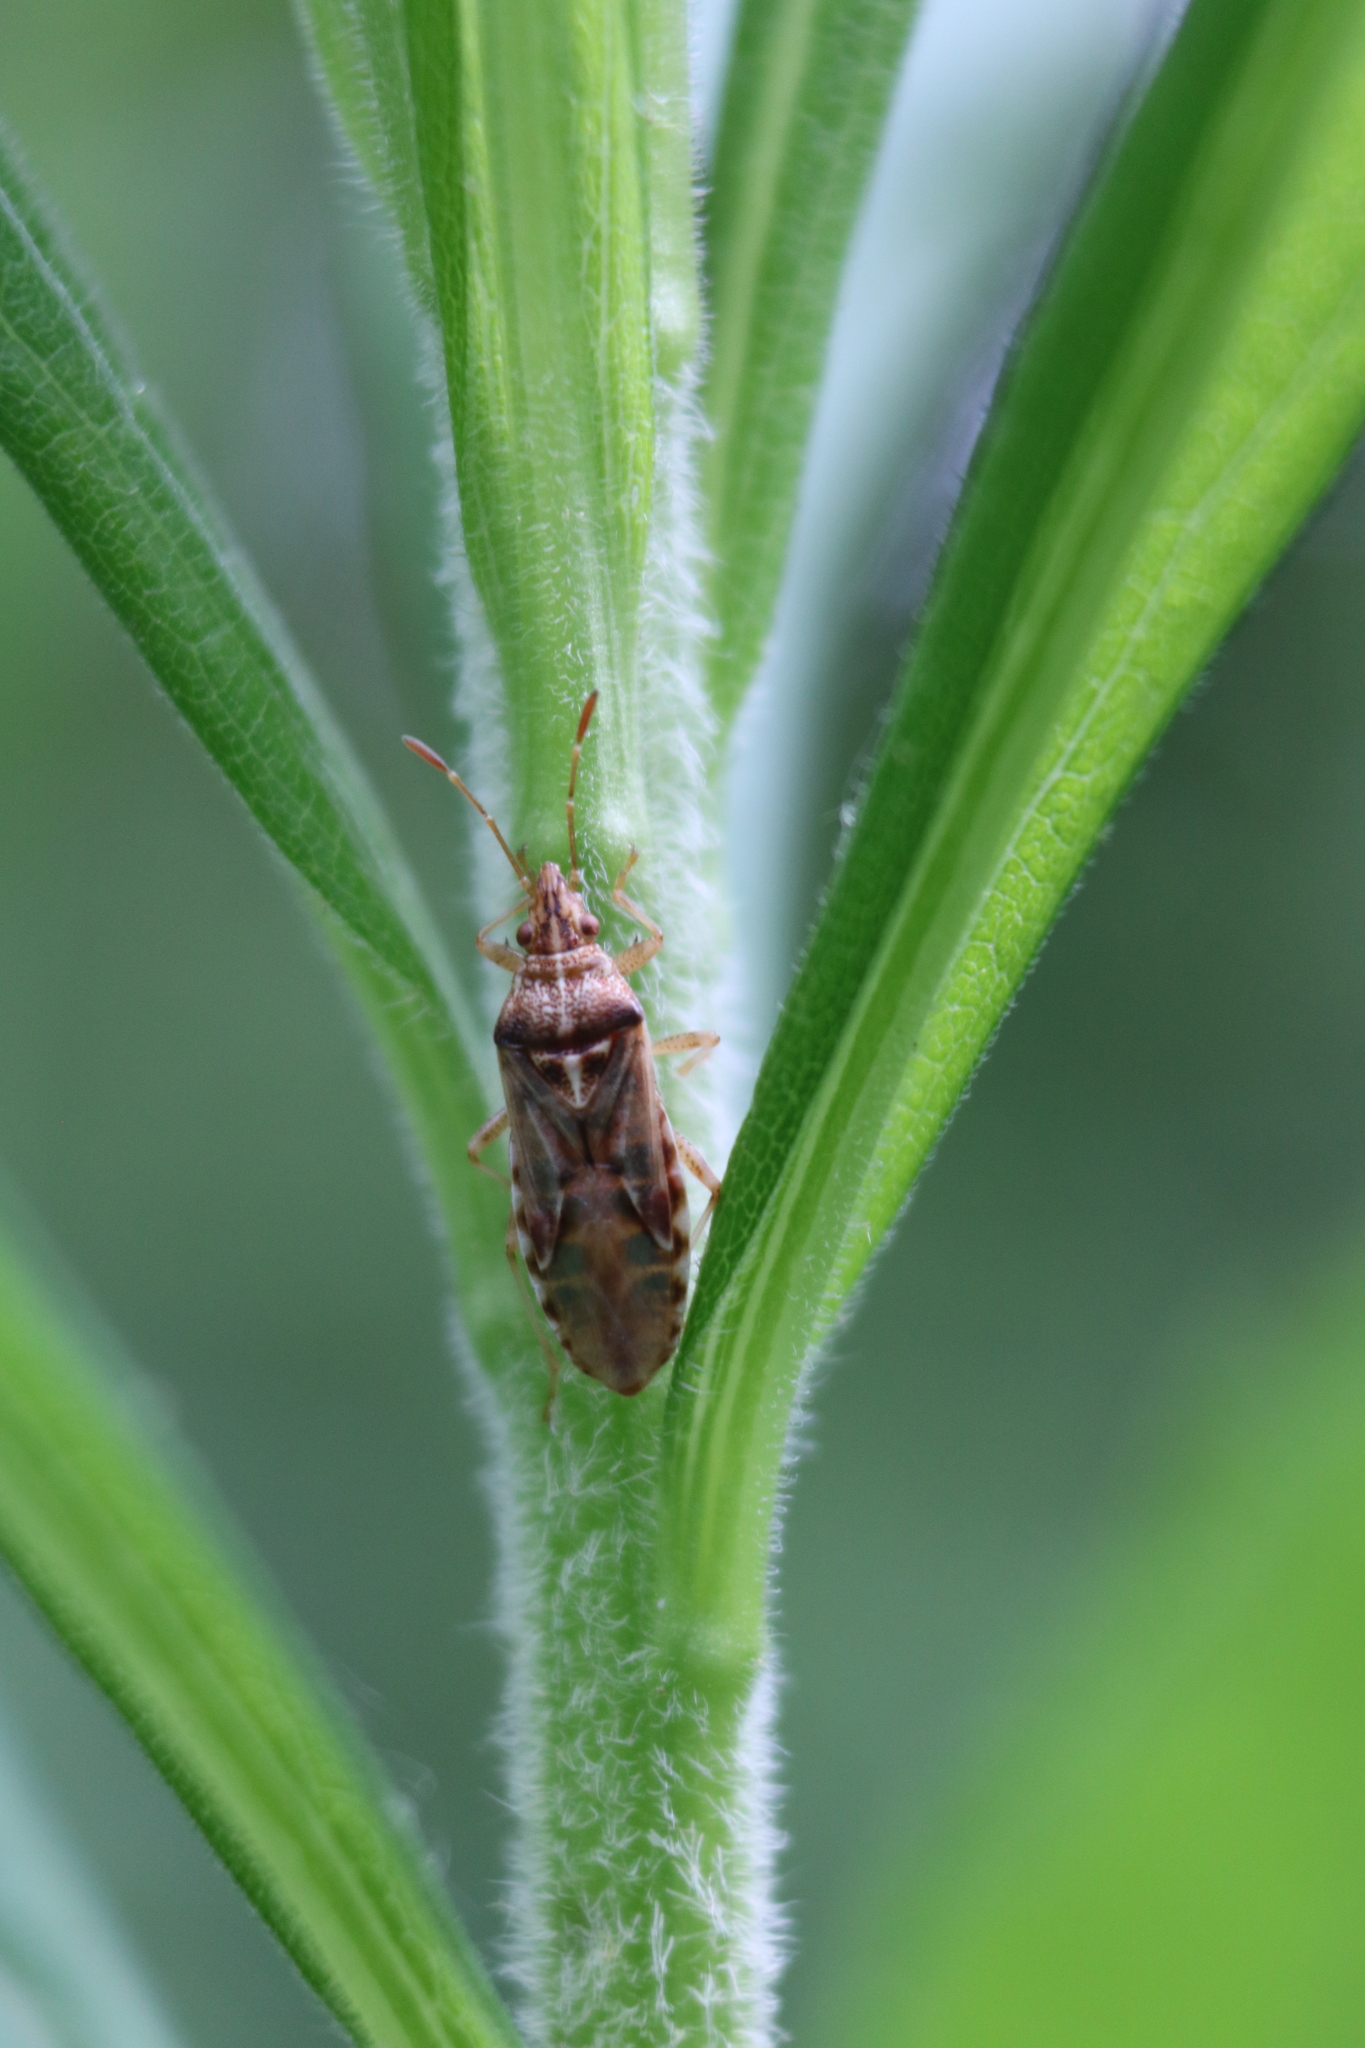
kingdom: Animalia
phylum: Arthropoda
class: Insecta
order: Hemiptera
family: Lygaeidae
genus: Belonochilus
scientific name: Belonochilus numenius
